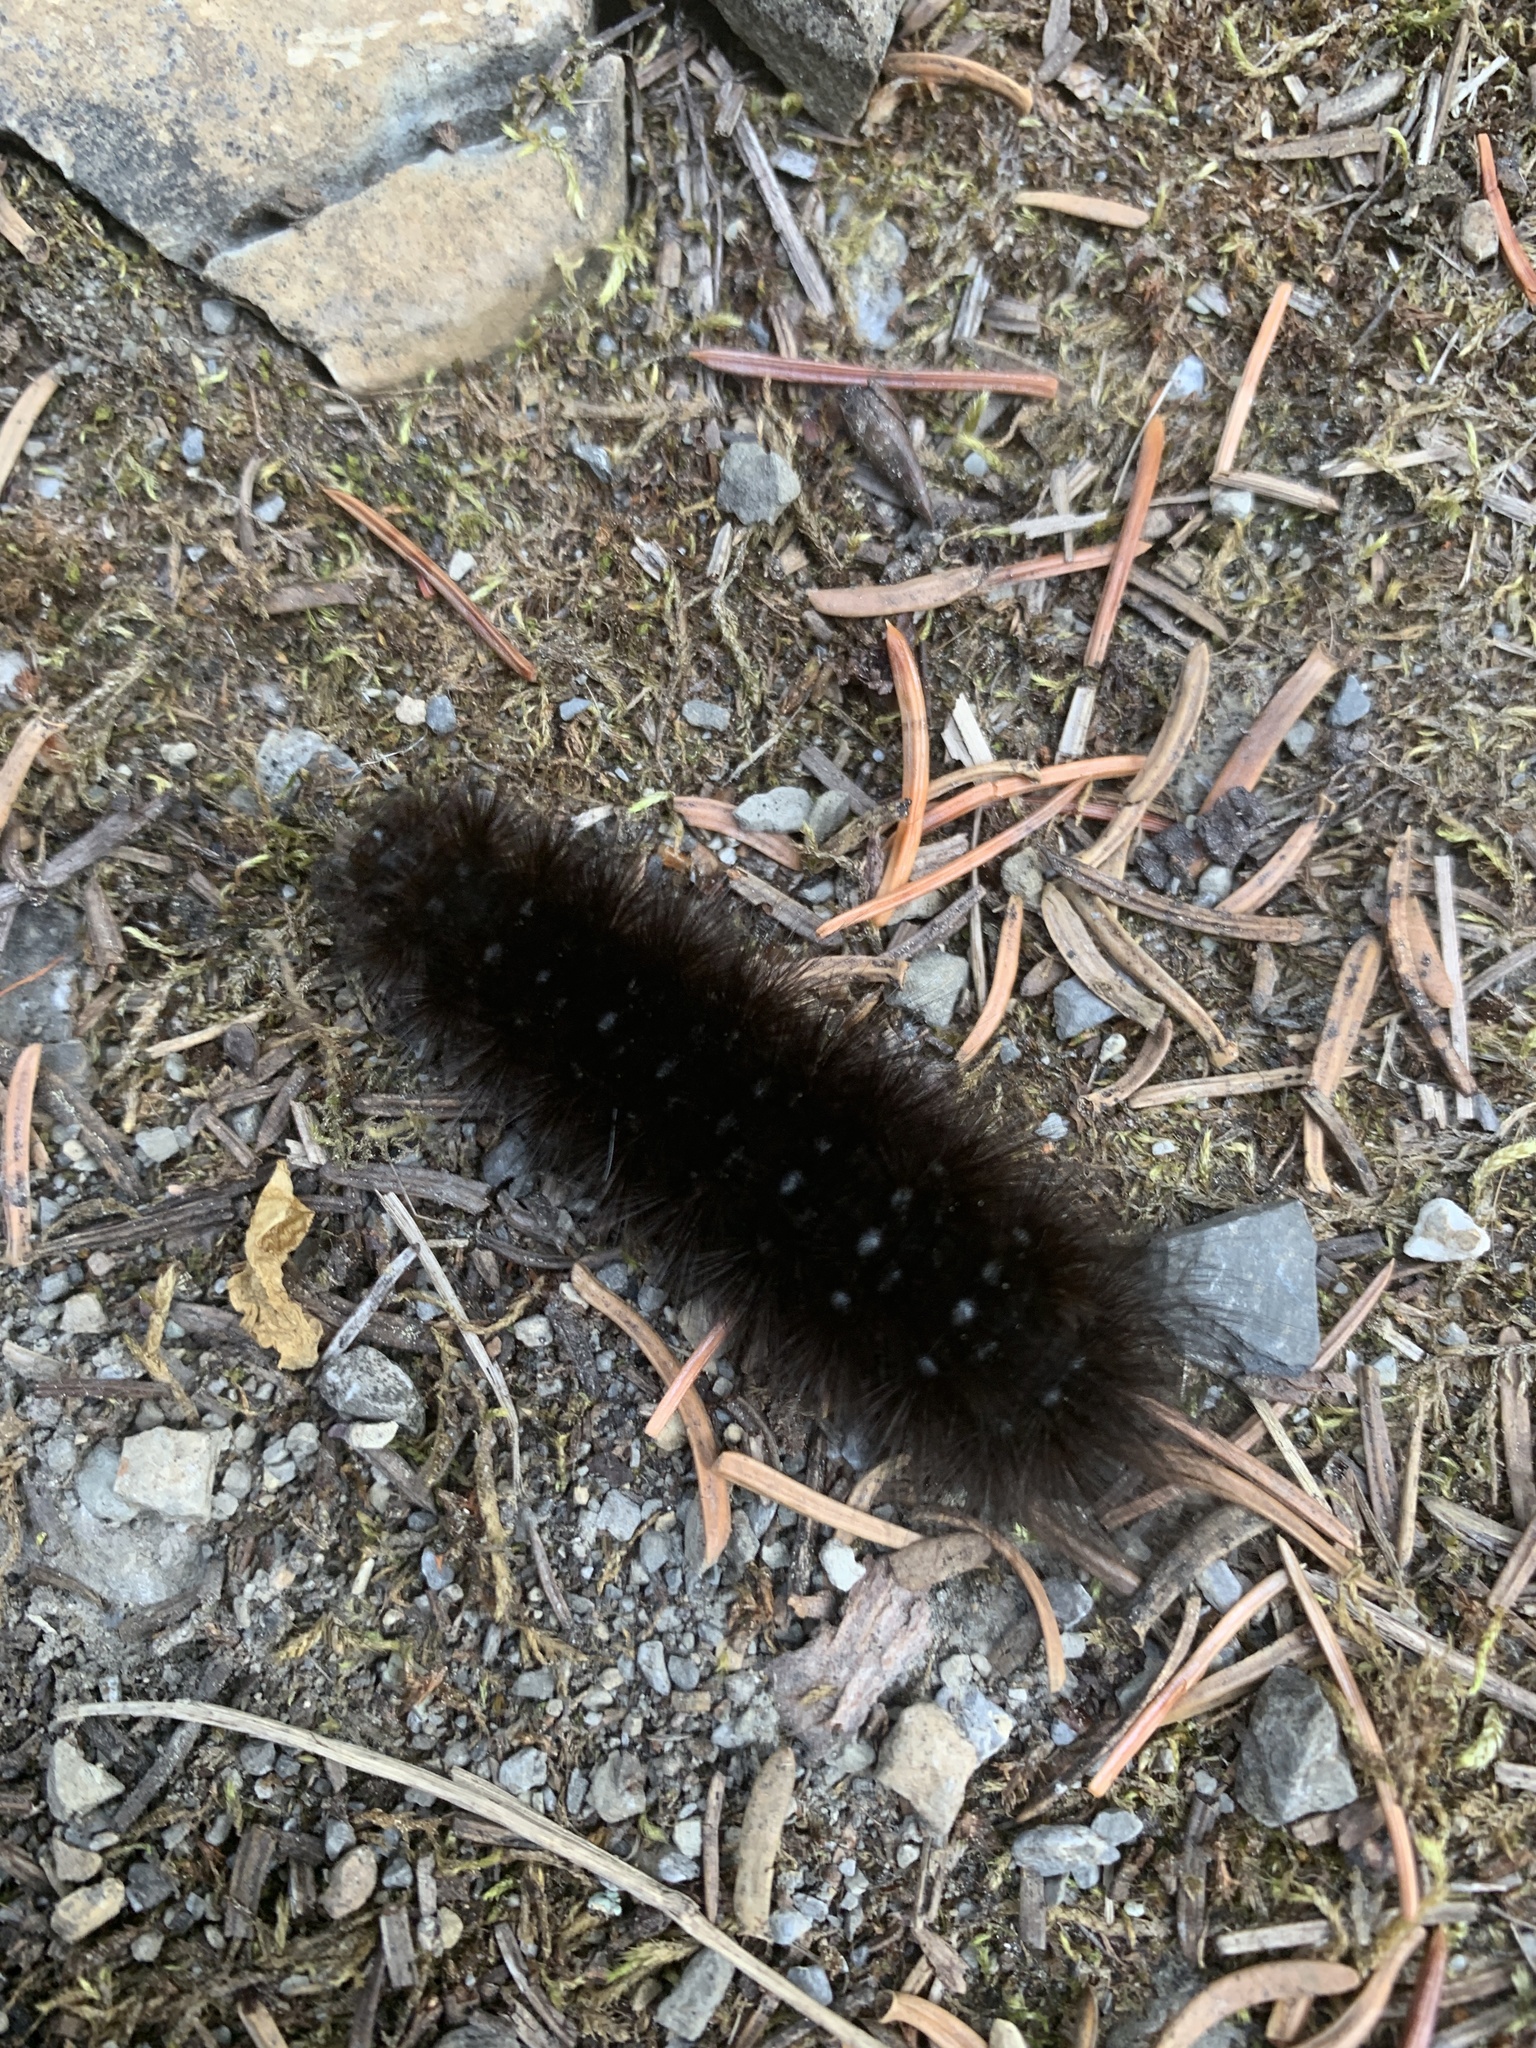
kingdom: Animalia
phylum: Arthropoda
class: Insecta
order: Lepidoptera
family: Erebidae
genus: Arctia
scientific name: Arctia parthenos
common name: St. lawrence tiger moth
